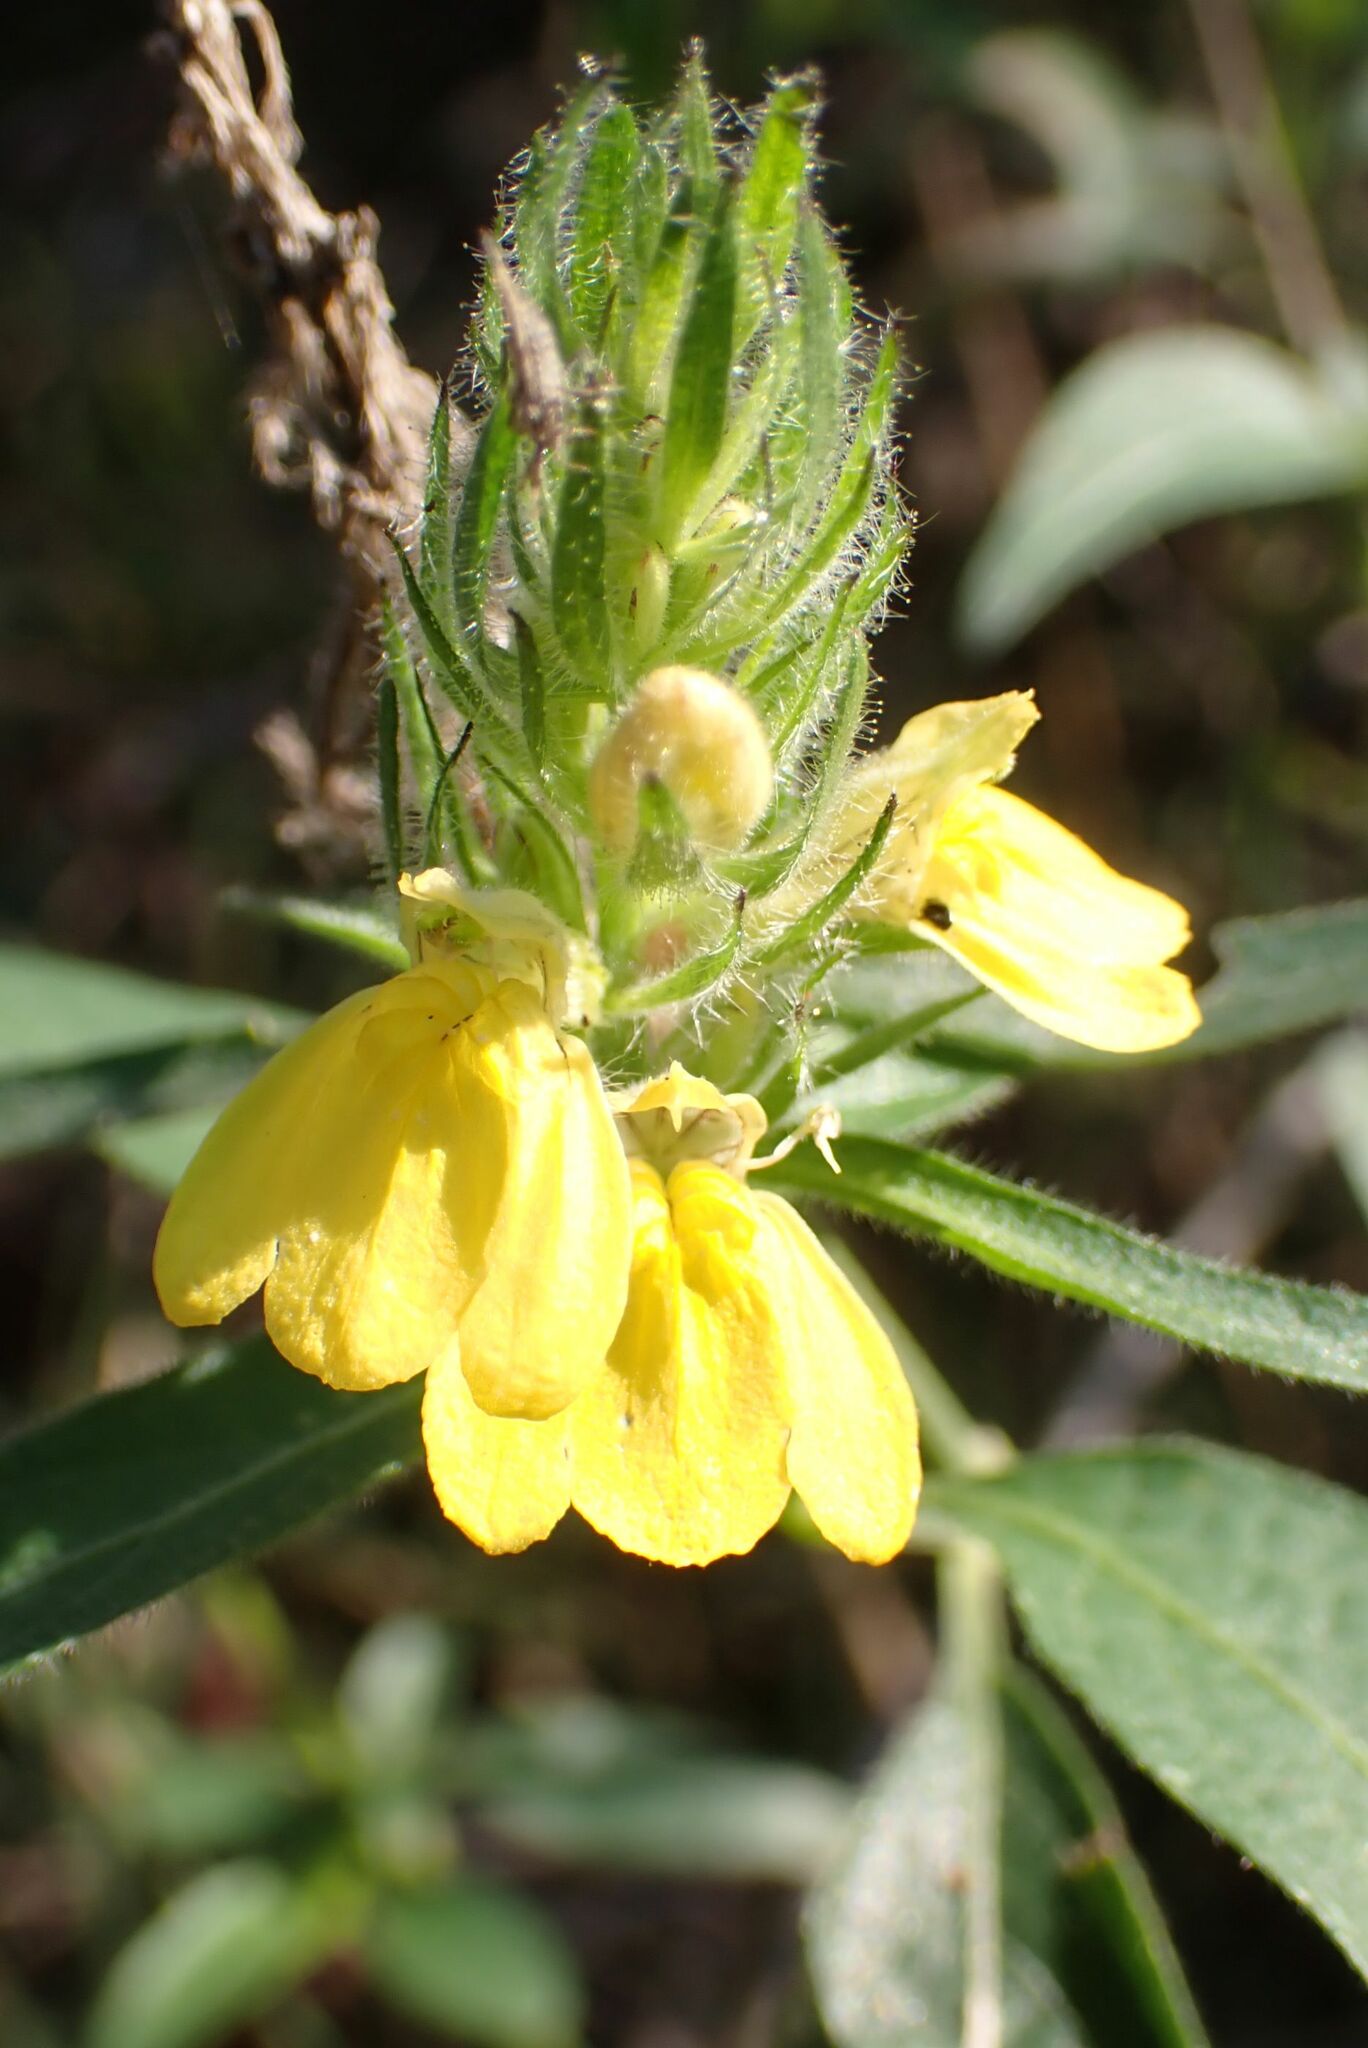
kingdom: Plantae
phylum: Tracheophyta
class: Magnoliopsida
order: Lamiales
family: Acanthaceae
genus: Justicia
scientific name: Justicia flava
